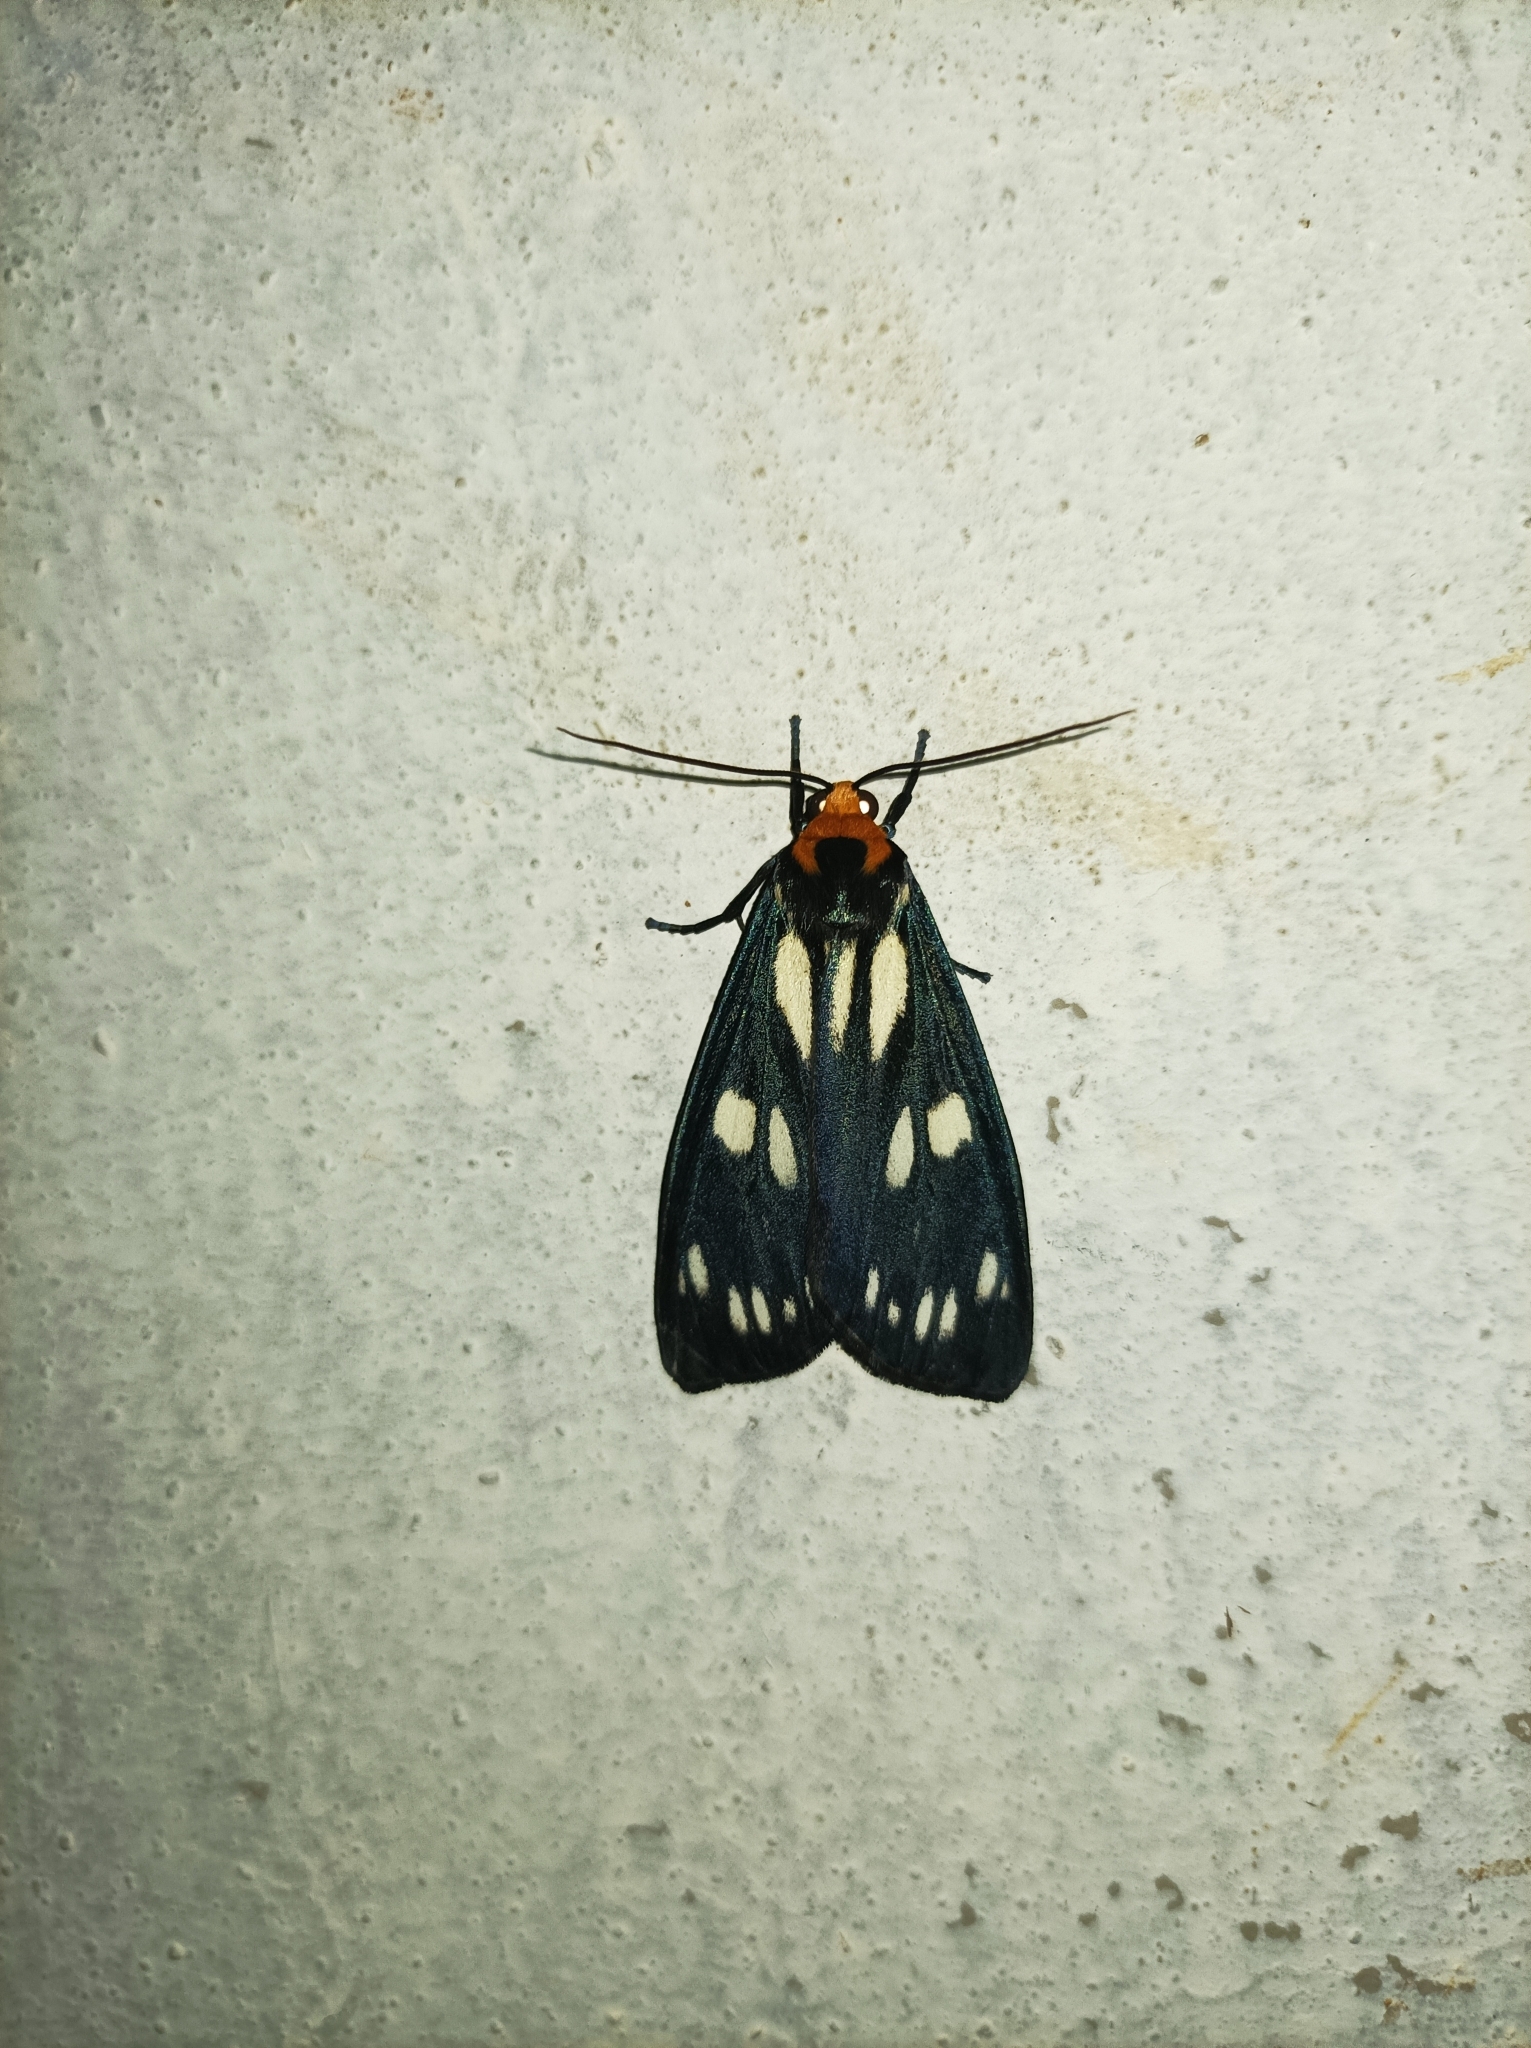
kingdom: Animalia
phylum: Arthropoda
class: Insecta
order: Lepidoptera
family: Erebidae
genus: Macrobrochis
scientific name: Macrobrochis gigas
